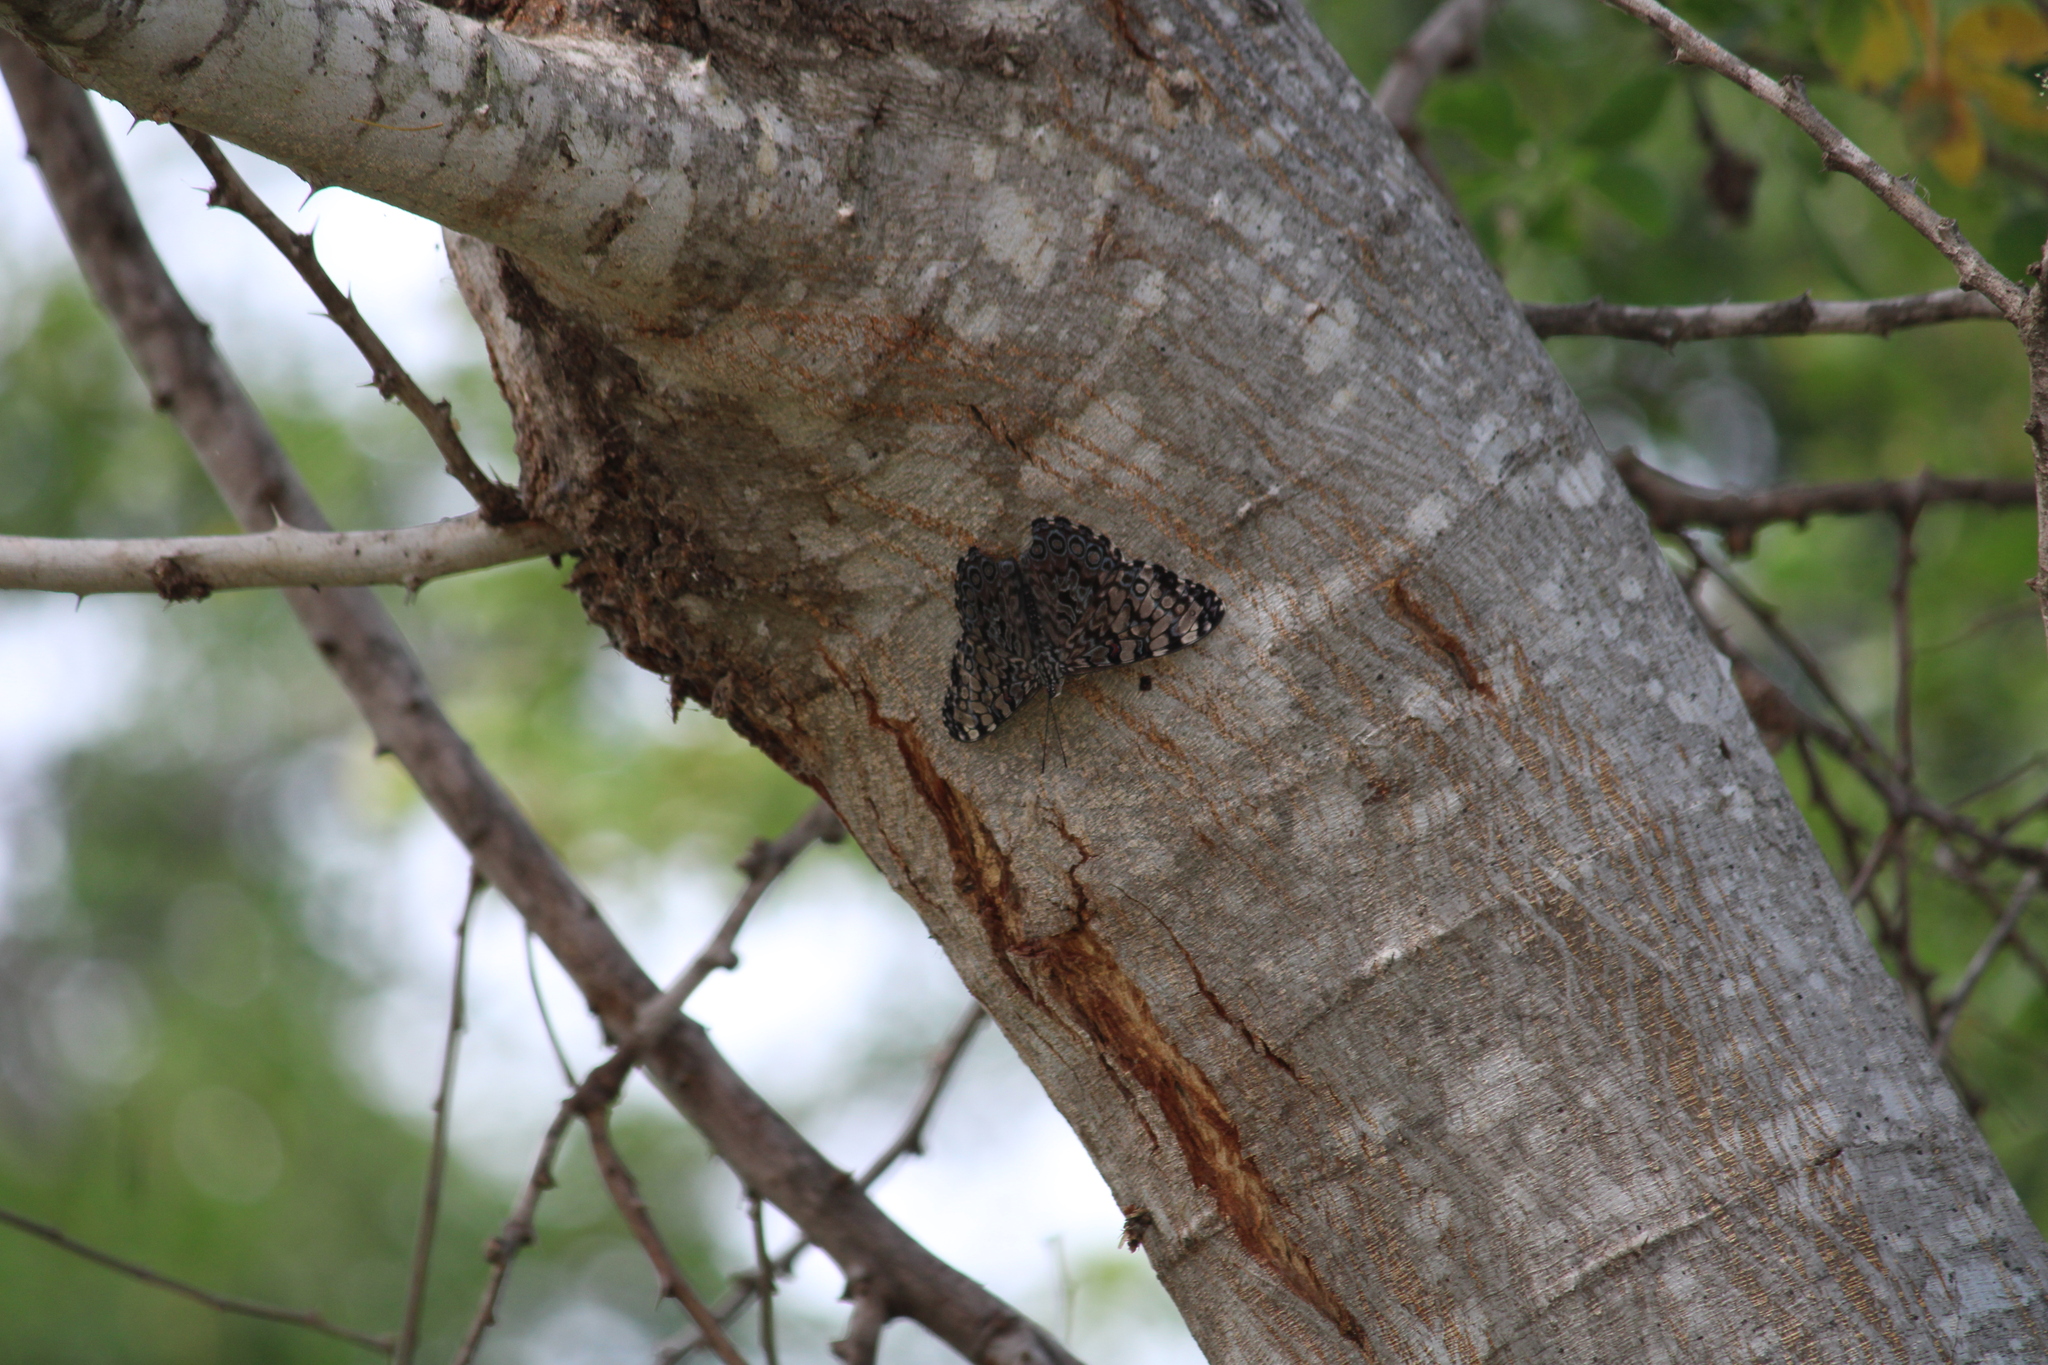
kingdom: Animalia
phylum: Arthropoda
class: Insecta
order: Lepidoptera
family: Nymphalidae
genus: Hamadryas
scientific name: Hamadryas guatemalena
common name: Guatemalan cracker
